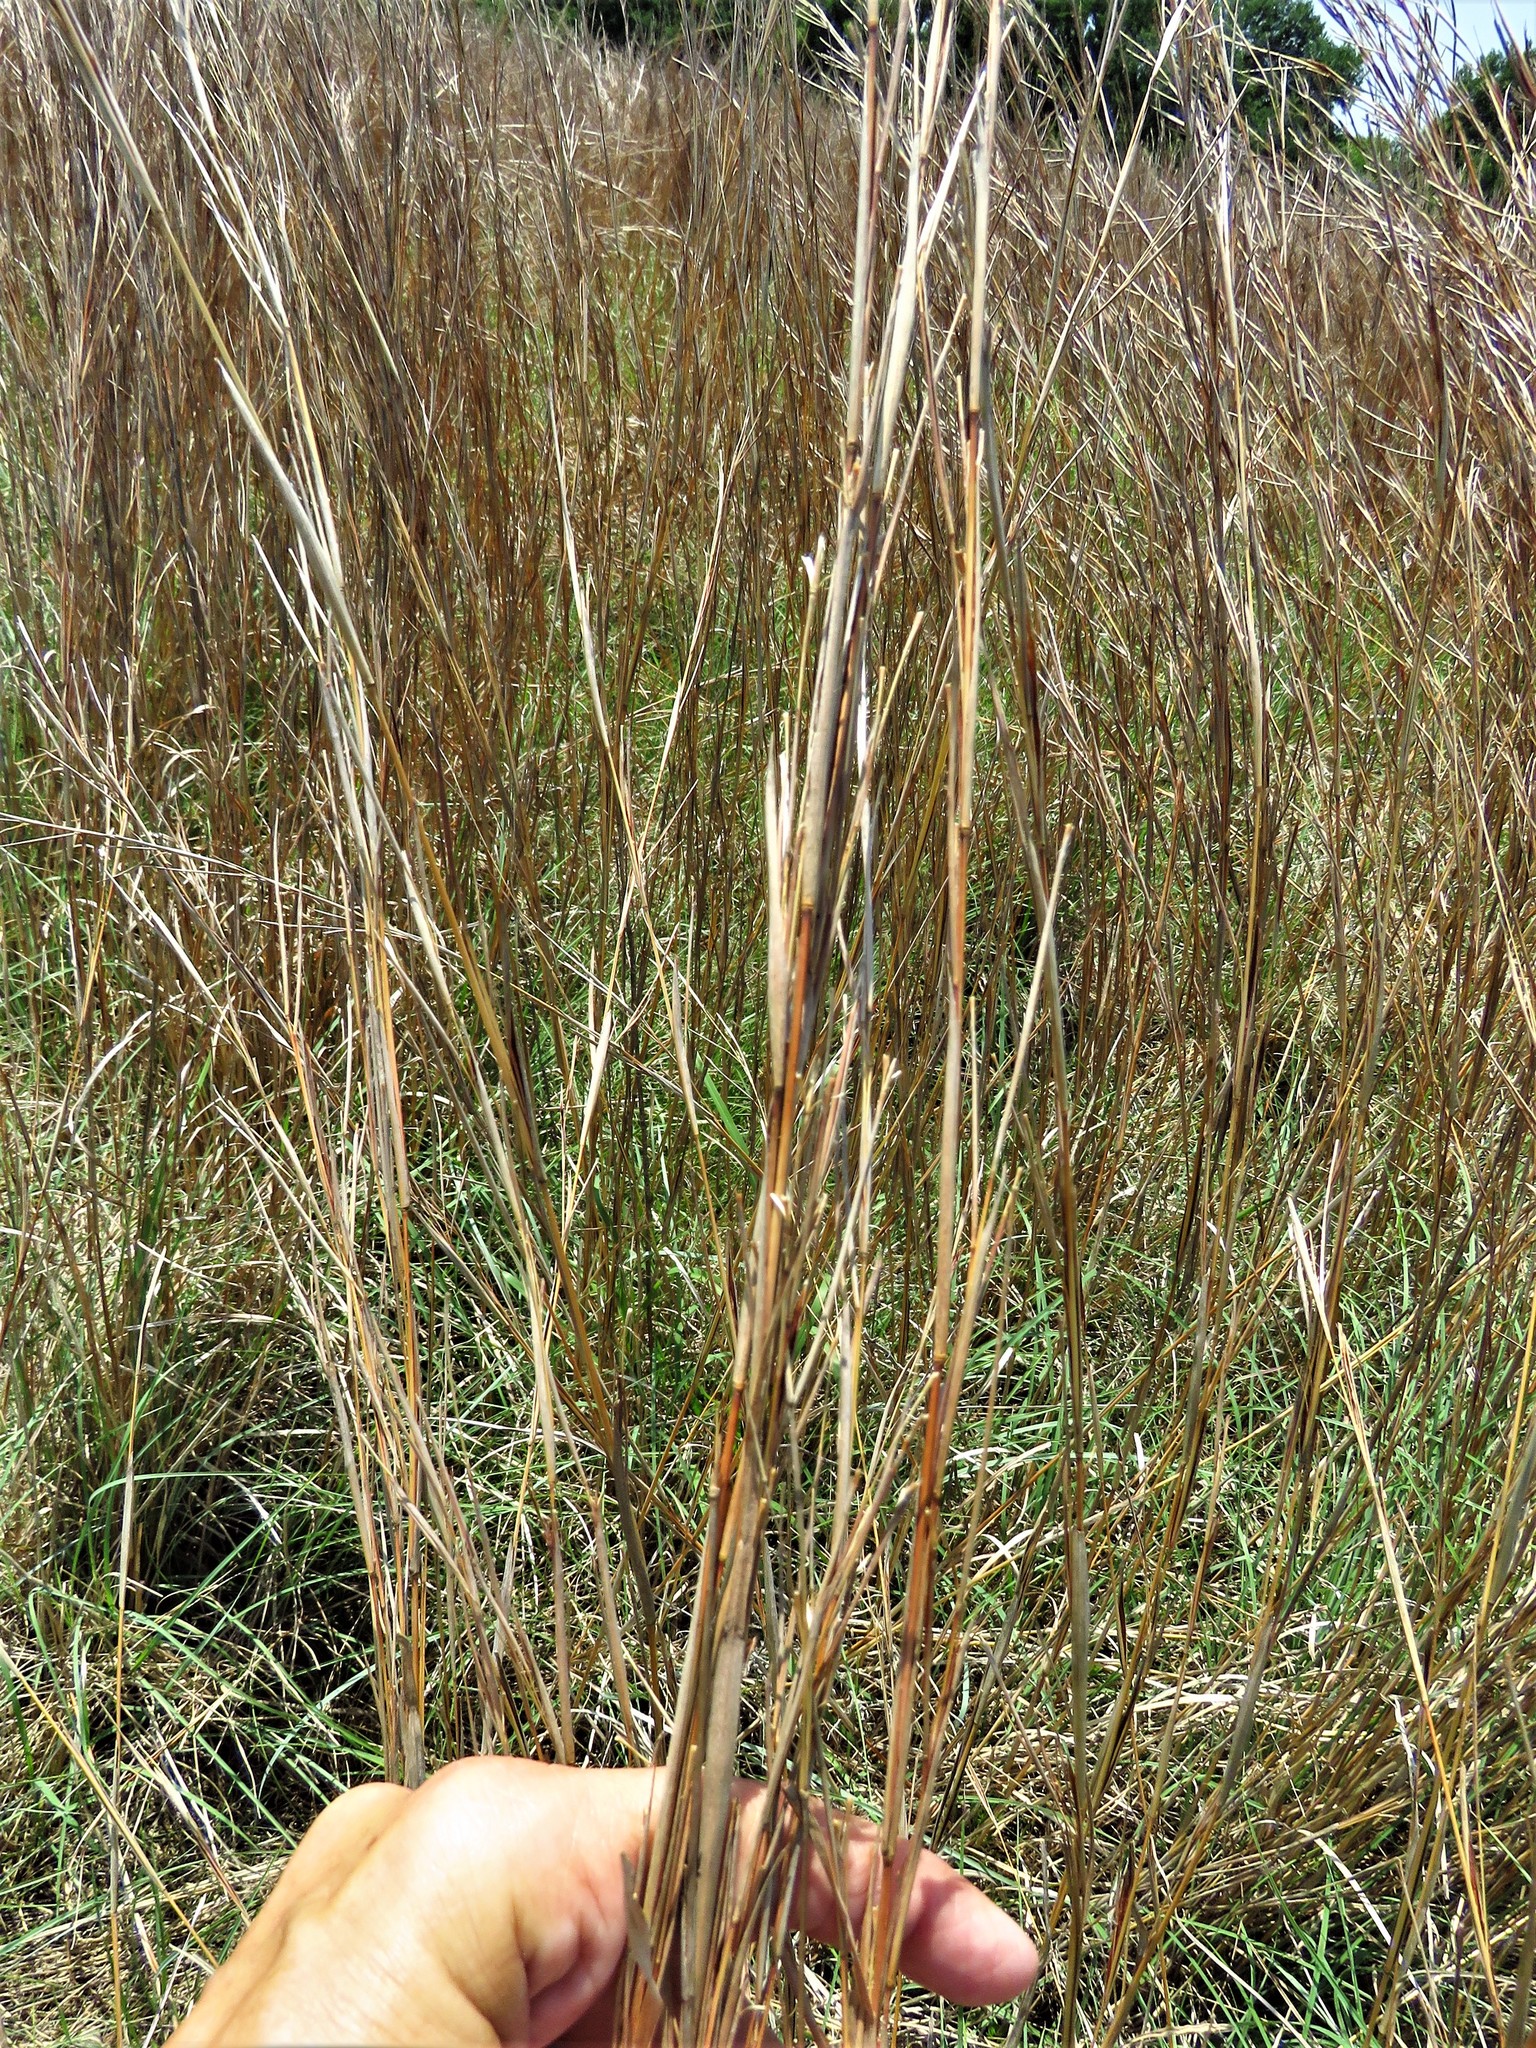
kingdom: Plantae
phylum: Tracheophyta
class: Liliopsida
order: Poales
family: Poaceae
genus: Schizachyrium
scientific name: Schizachyrium scoparium
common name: Little bluestem
